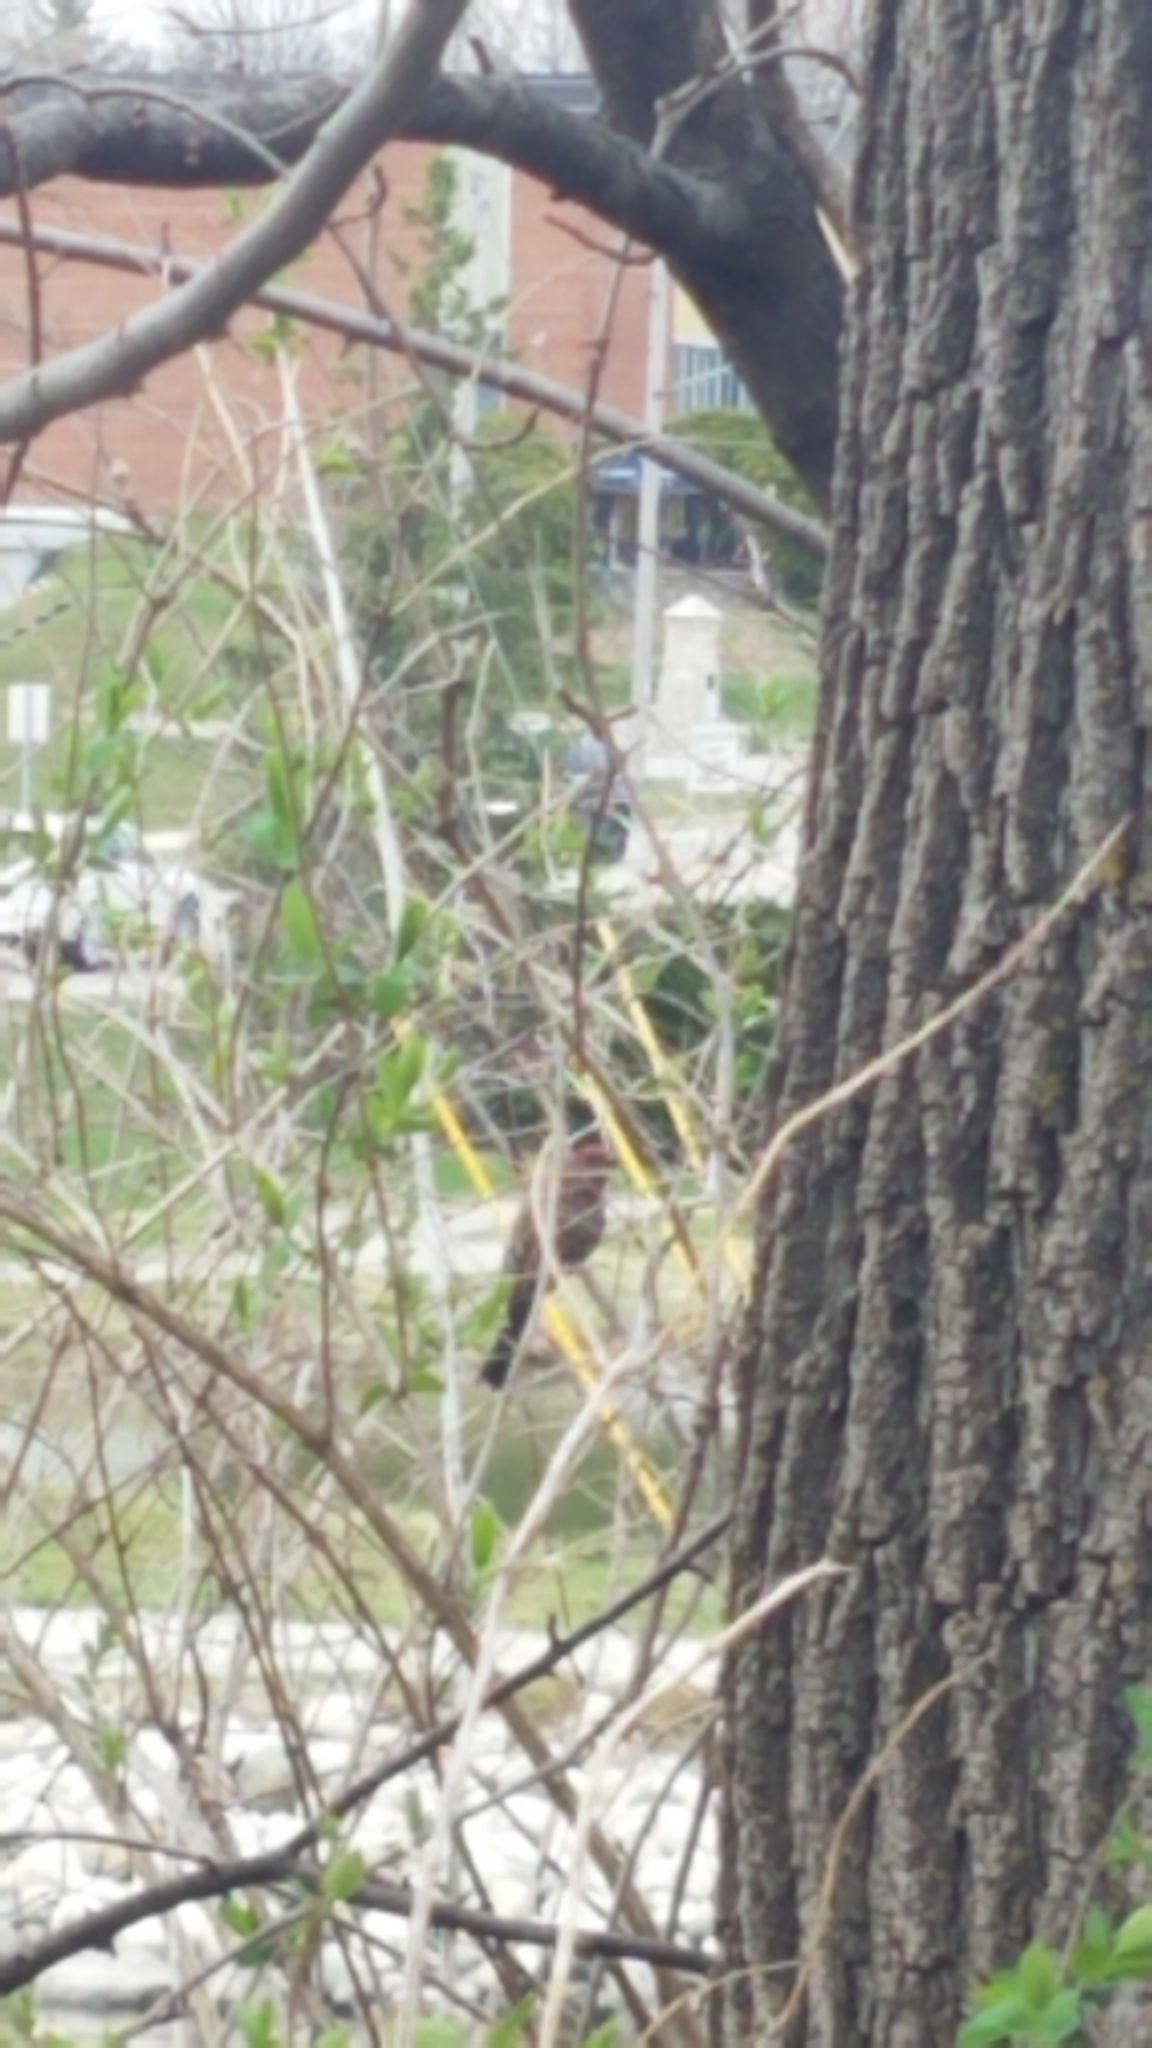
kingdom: Animalia
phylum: Chordata
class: Aves
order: Passeriformes
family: Fringillidae
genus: Haemorhous
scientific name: Haemorhous mexicanus
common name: House finch
